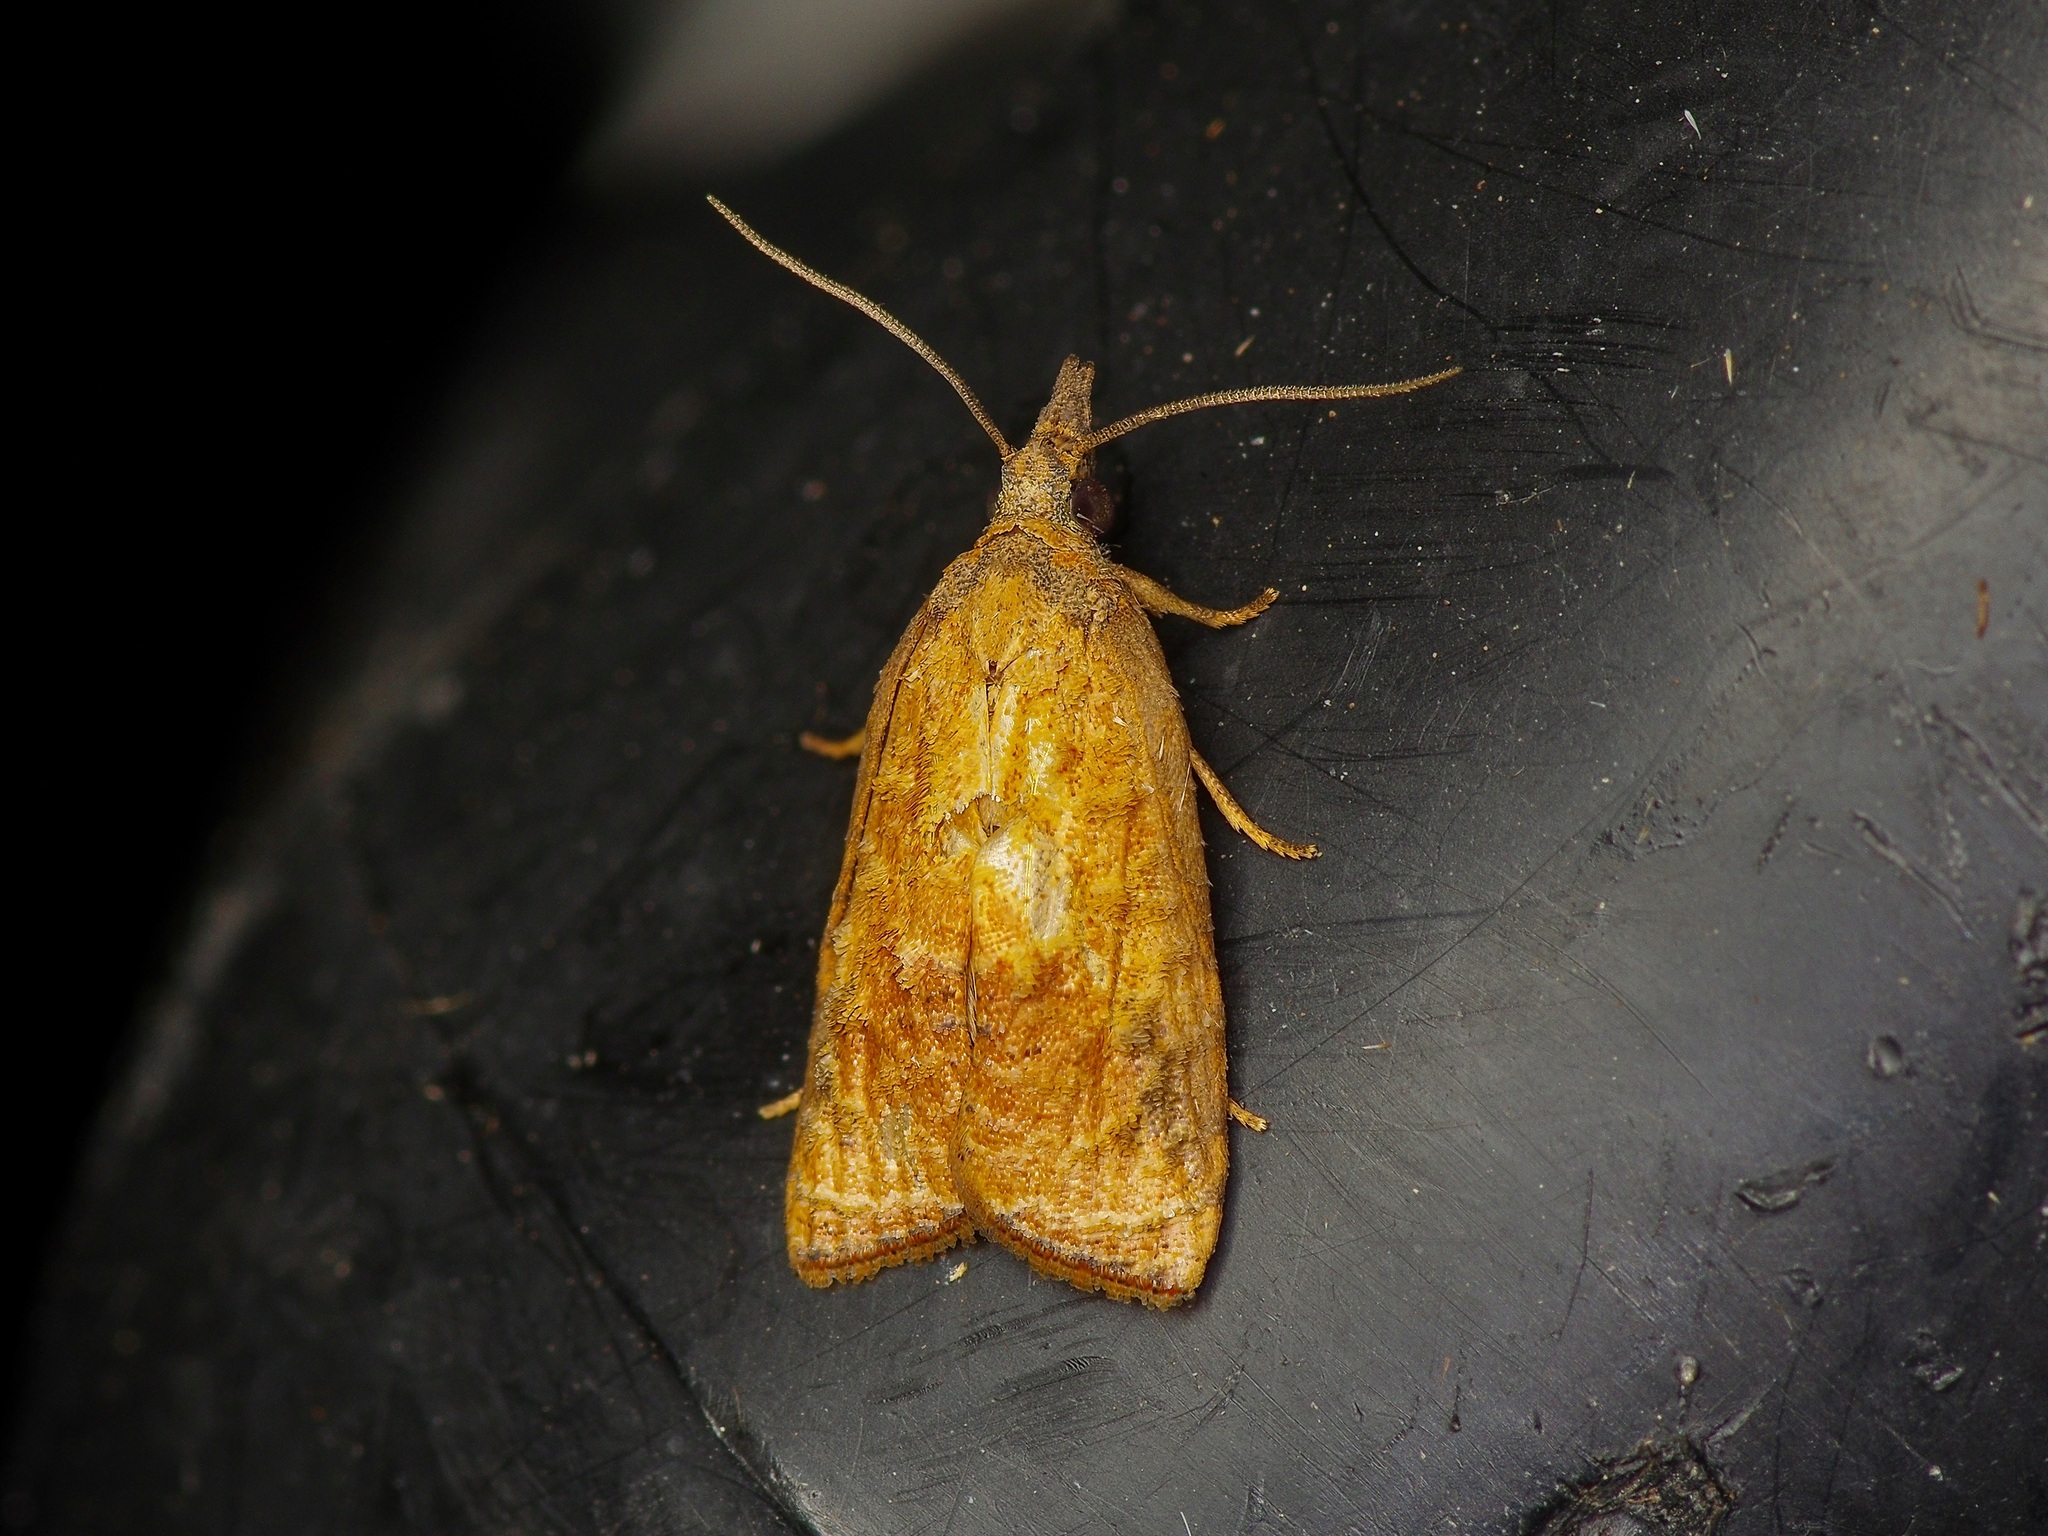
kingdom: Animalia
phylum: Arthropoda
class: Insecta
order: Lepidoptera
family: Tortricidae
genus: Platynota
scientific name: Platynota rostrana
